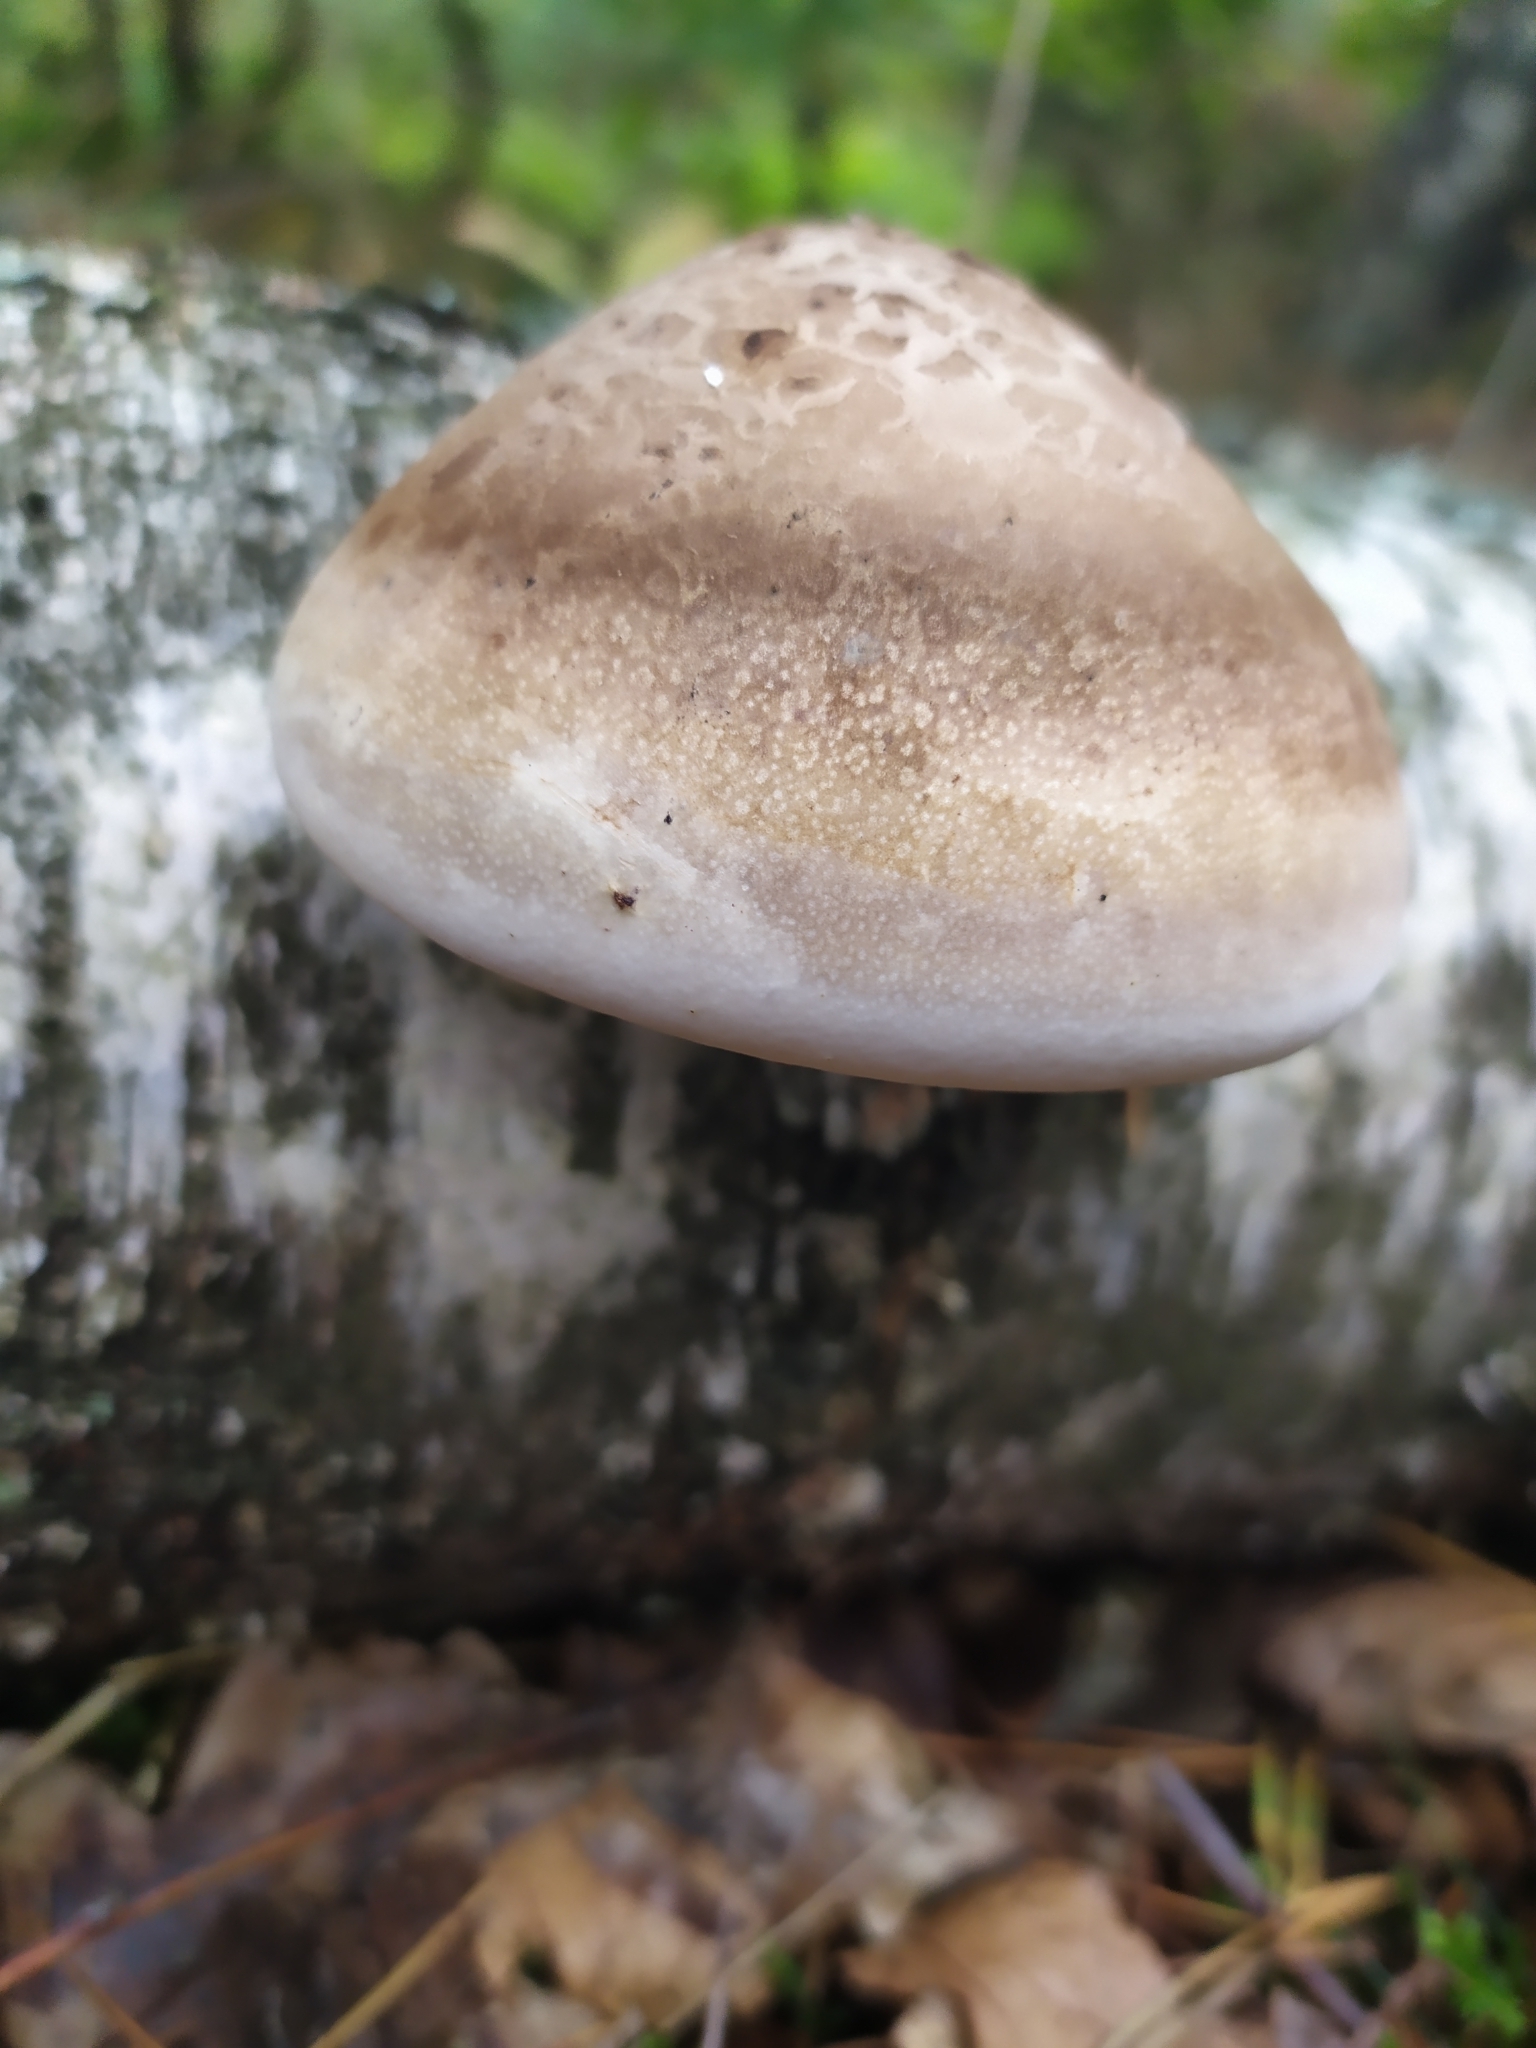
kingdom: Fungi
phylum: Basidiomycota
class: Agaricomycetes
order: Polyporales
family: Fomitopsidaceae
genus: Fomitopsis
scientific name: Fomitopsis betulina
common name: Birch polypore
